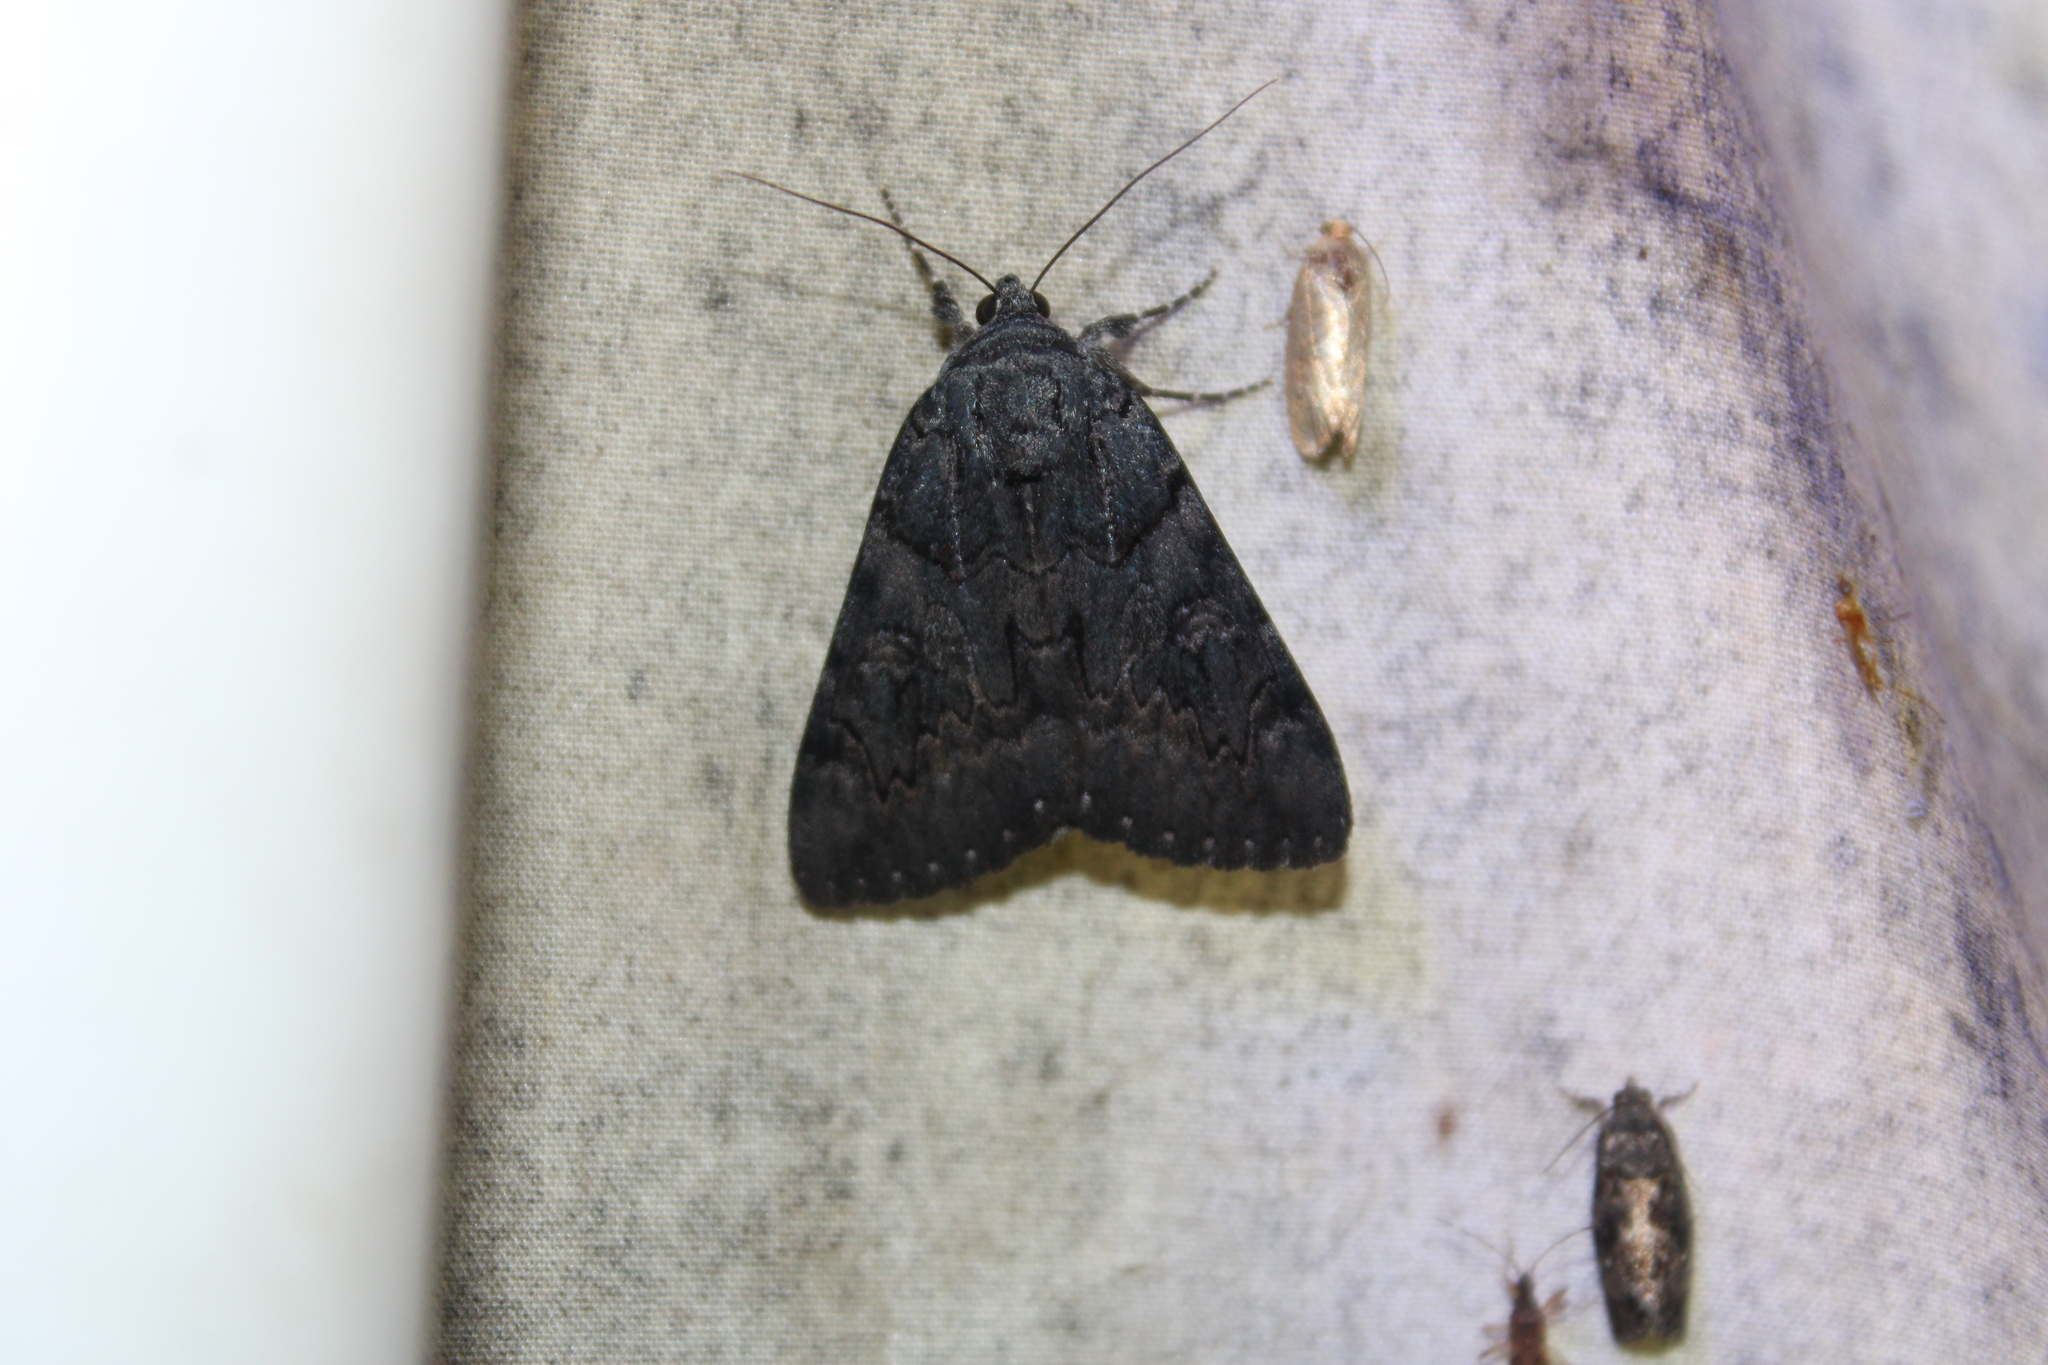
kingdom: Animalia
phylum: Arthropoda
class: Insecta
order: Lepidoptera
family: Erebidae
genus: Catocala
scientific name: Catocala antinympha
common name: Sweetfern underwing
